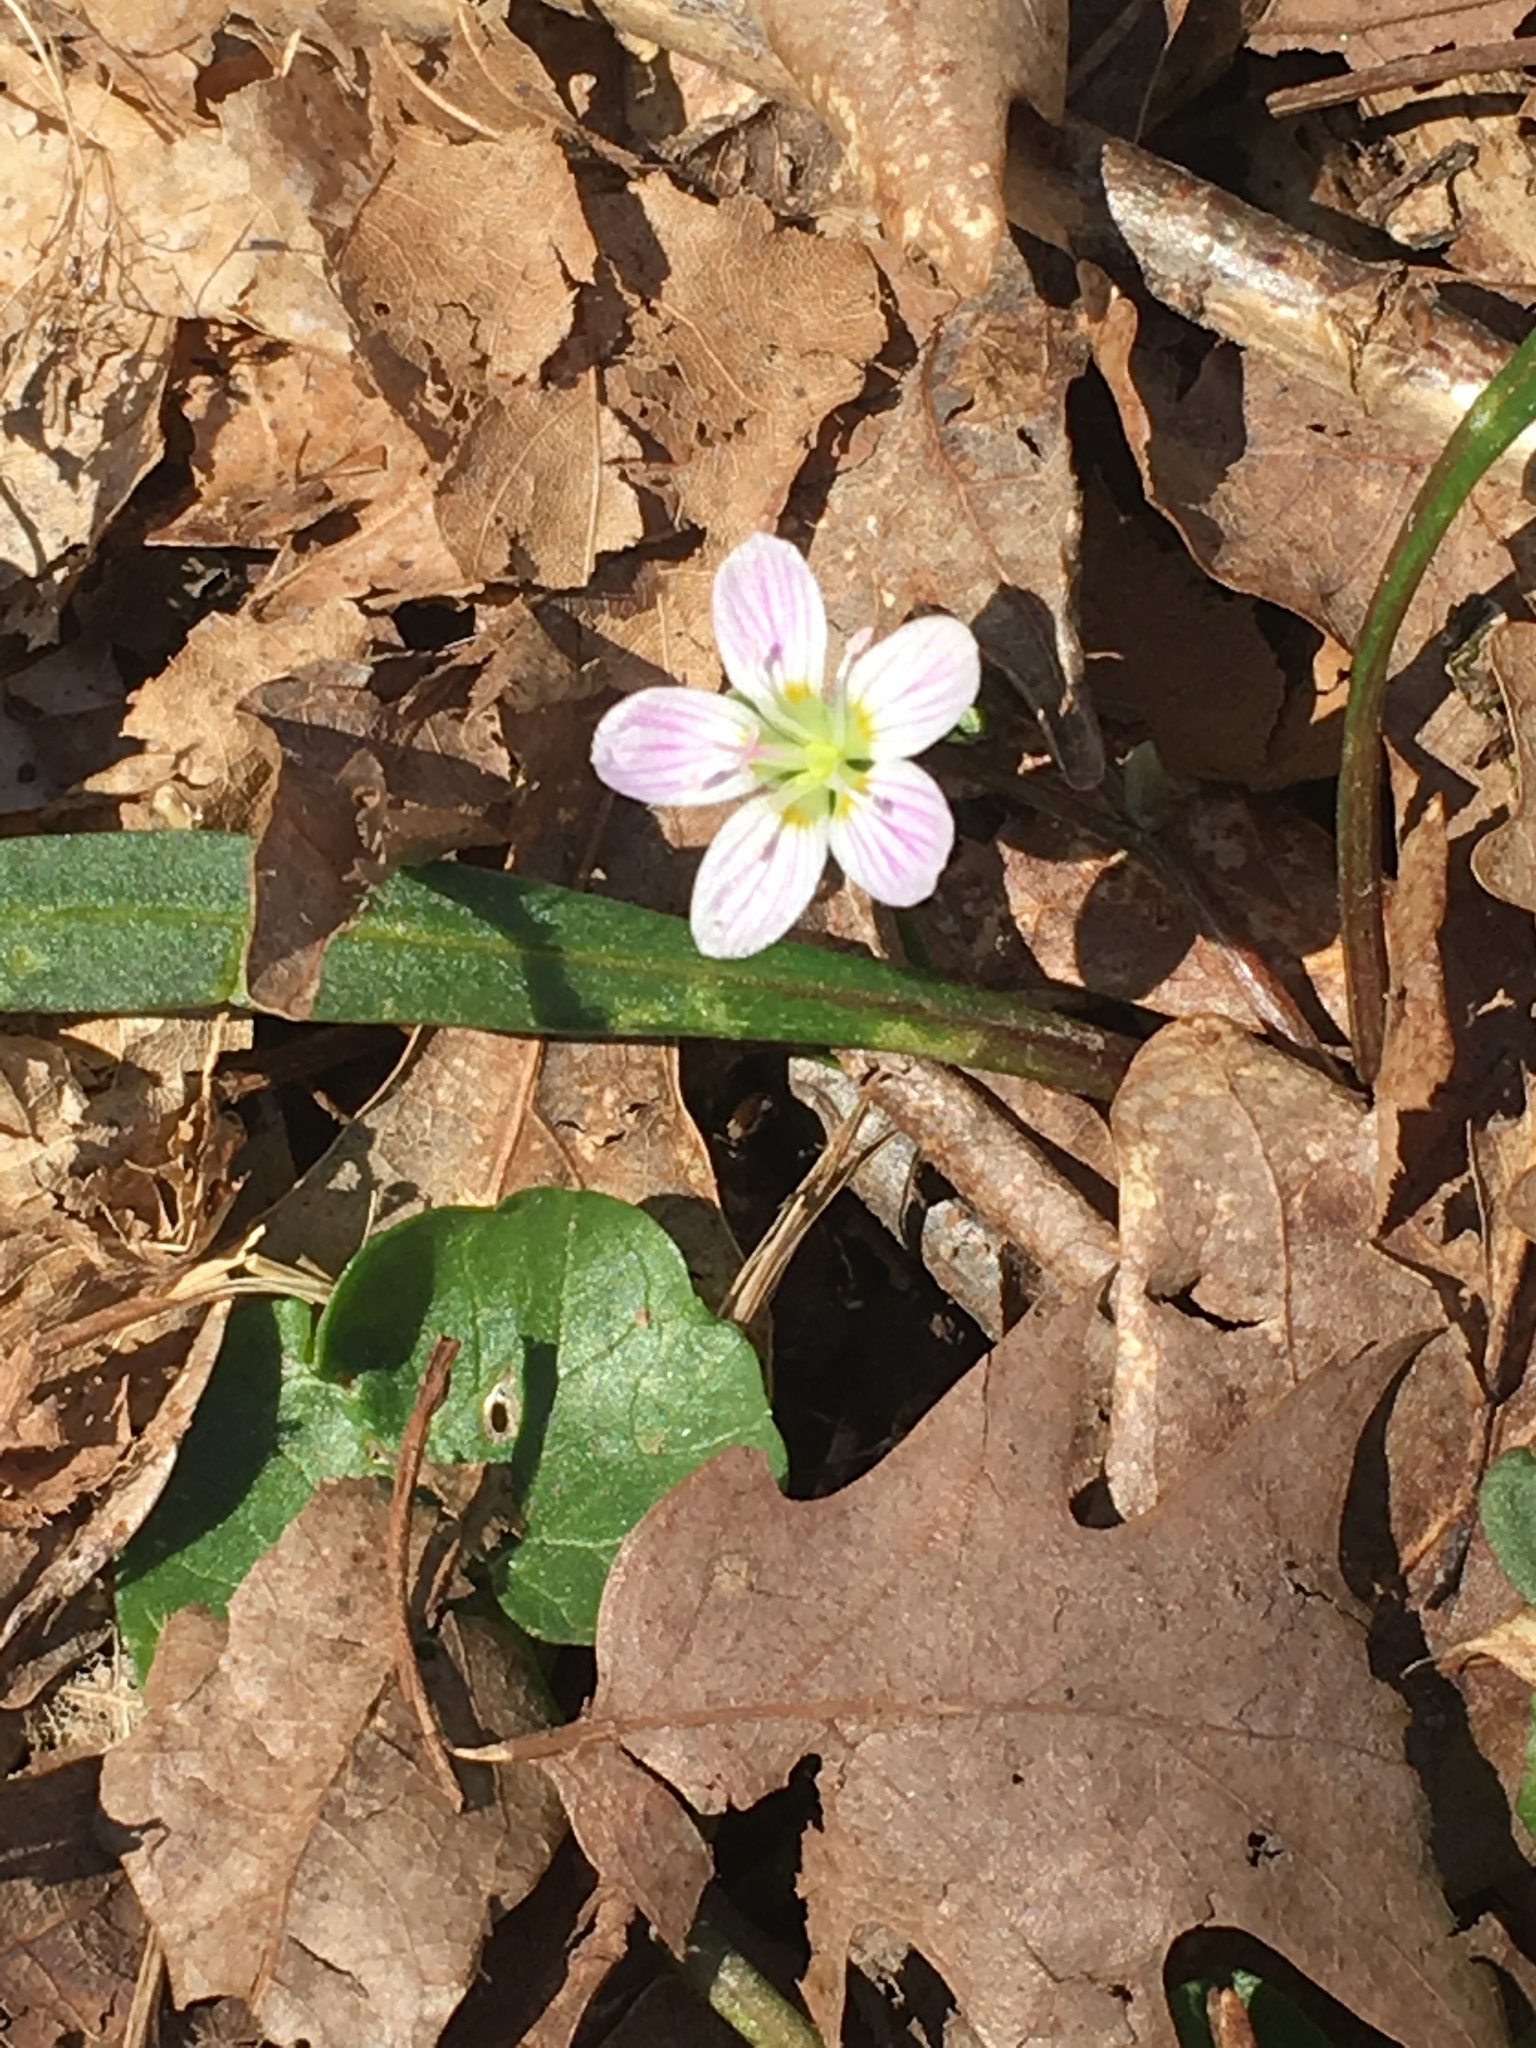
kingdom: Plantae
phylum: Tracheophyta
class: Magnoliopsida
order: Caryophyllales
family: Montiaceae
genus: Claytonia
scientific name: Claytonia virginica
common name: Virginia springbeauty
